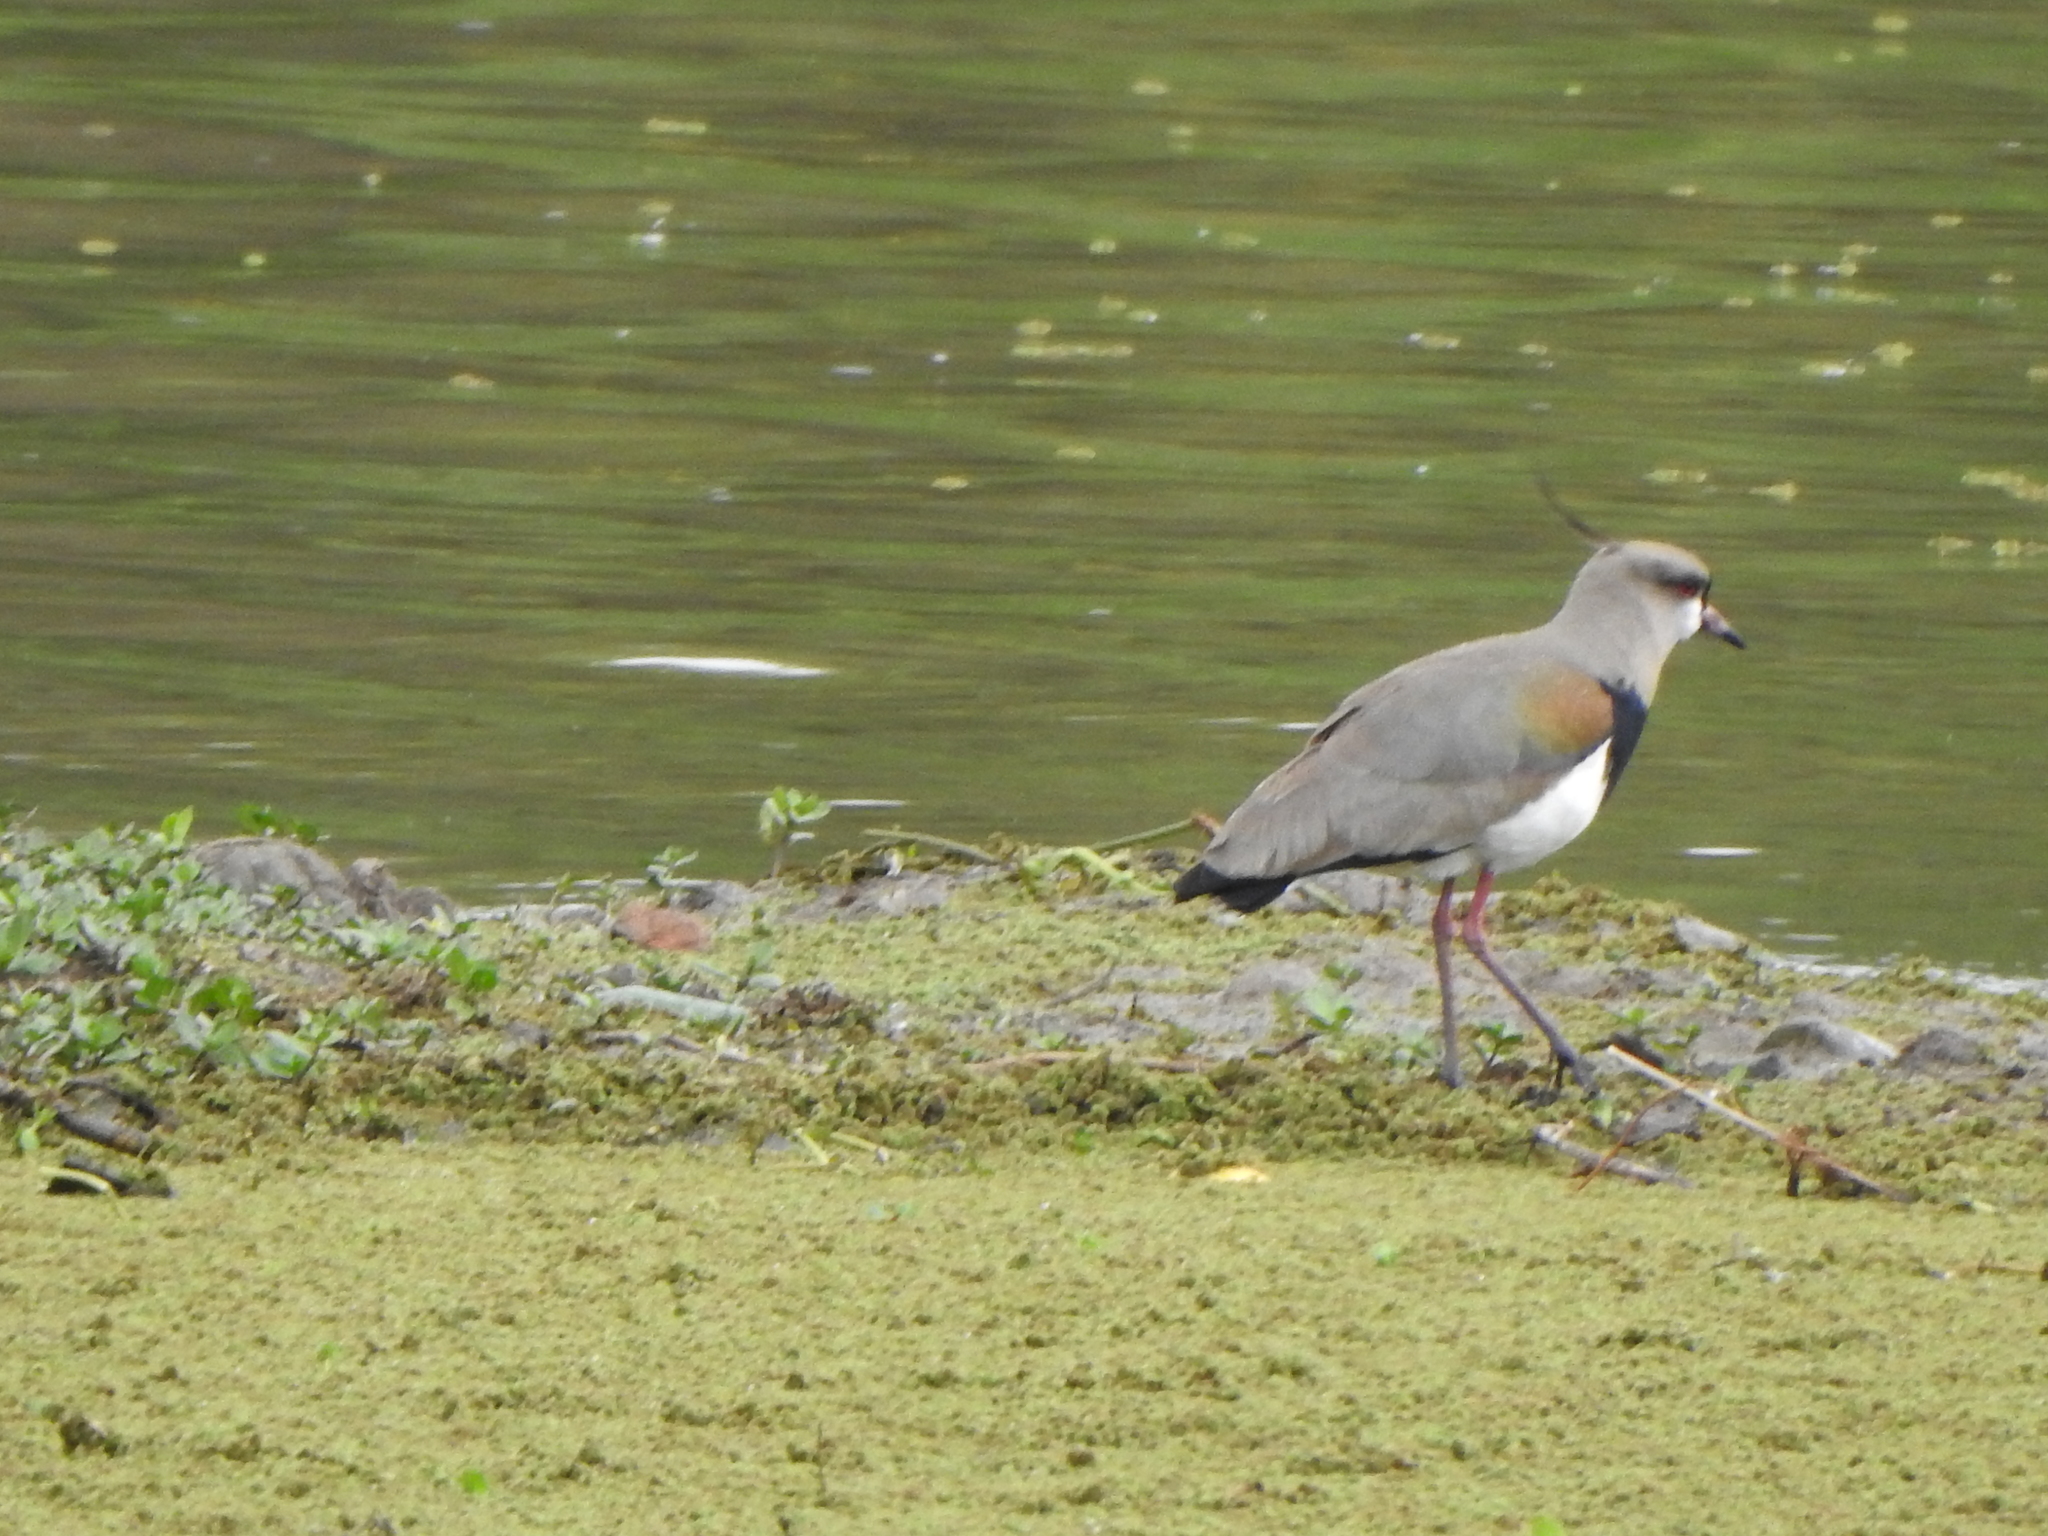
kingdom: Animalia
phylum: Chordata
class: Aves
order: Charadriiformes
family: Charadriidae
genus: Vanellus
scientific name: Vanellus chilensis
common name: Southern lapwing
